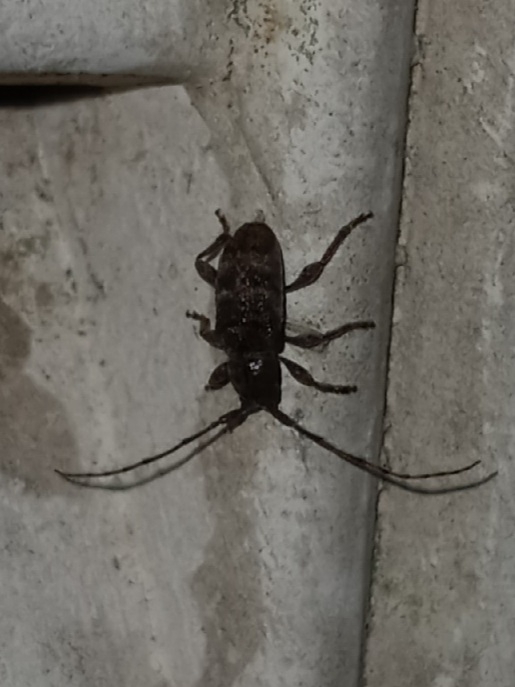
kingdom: Animalia
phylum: Arthropoda
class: Insecta
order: Coleoptera
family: Cerambycidae
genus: Ecyrus
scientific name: Ecyrus dasycerus
